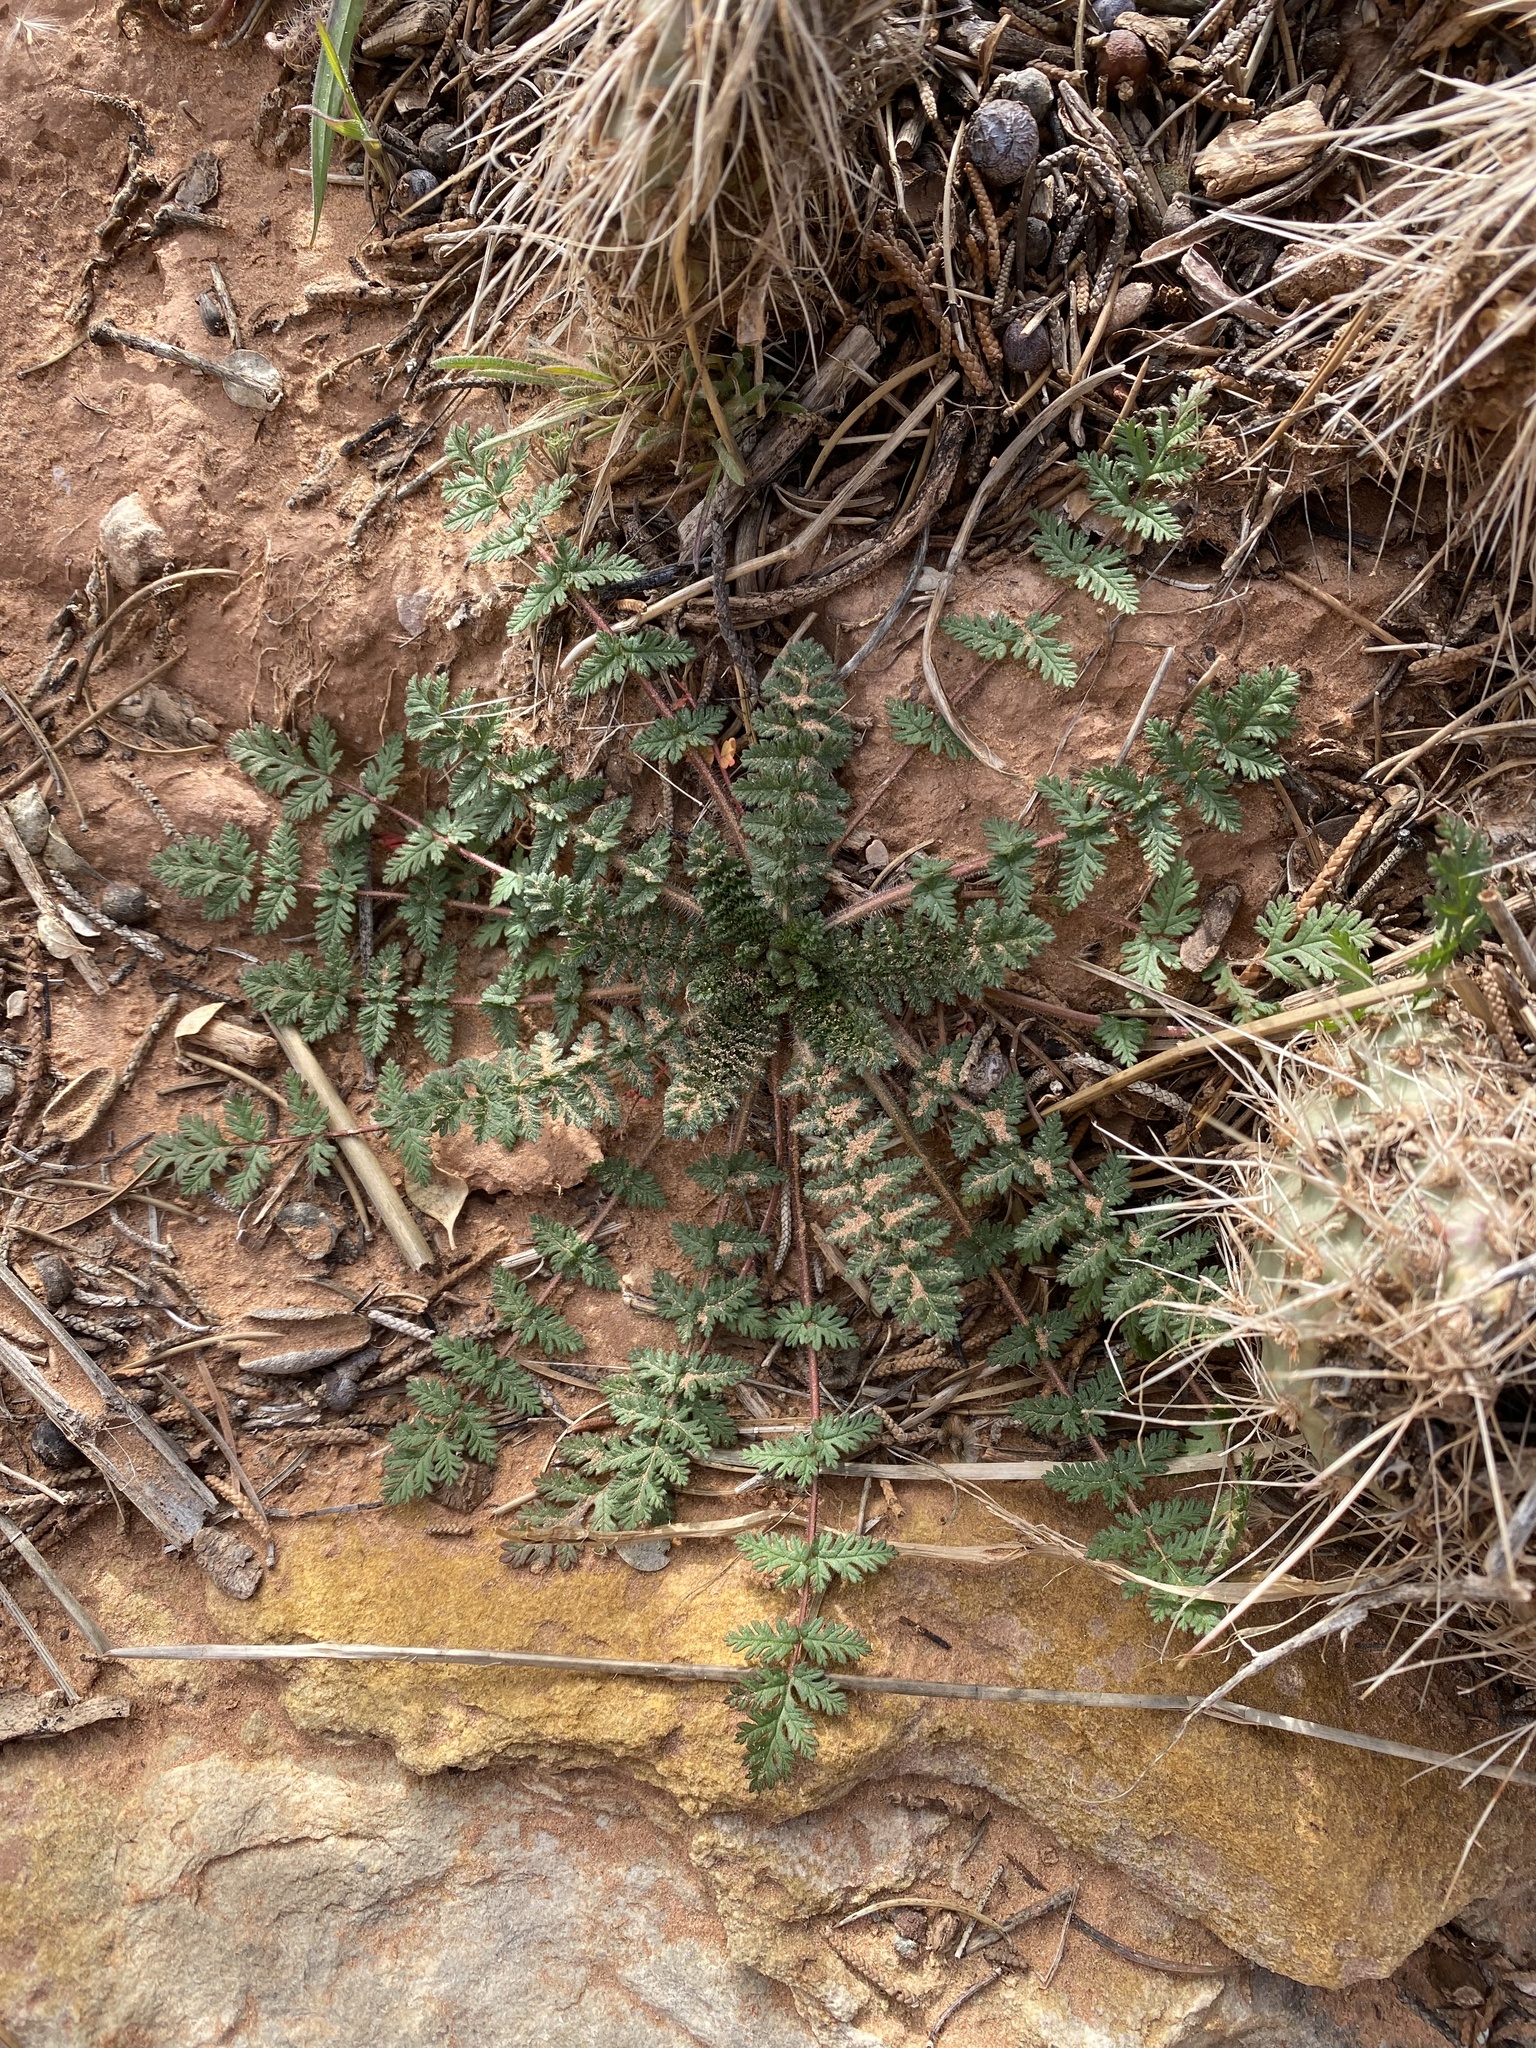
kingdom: Plantae
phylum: Tracheophyta
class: Magnoliopsida
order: Geraniales
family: Geraniaceae
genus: Erodium
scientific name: Erodium cicutarium
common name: Common stork's-bill
